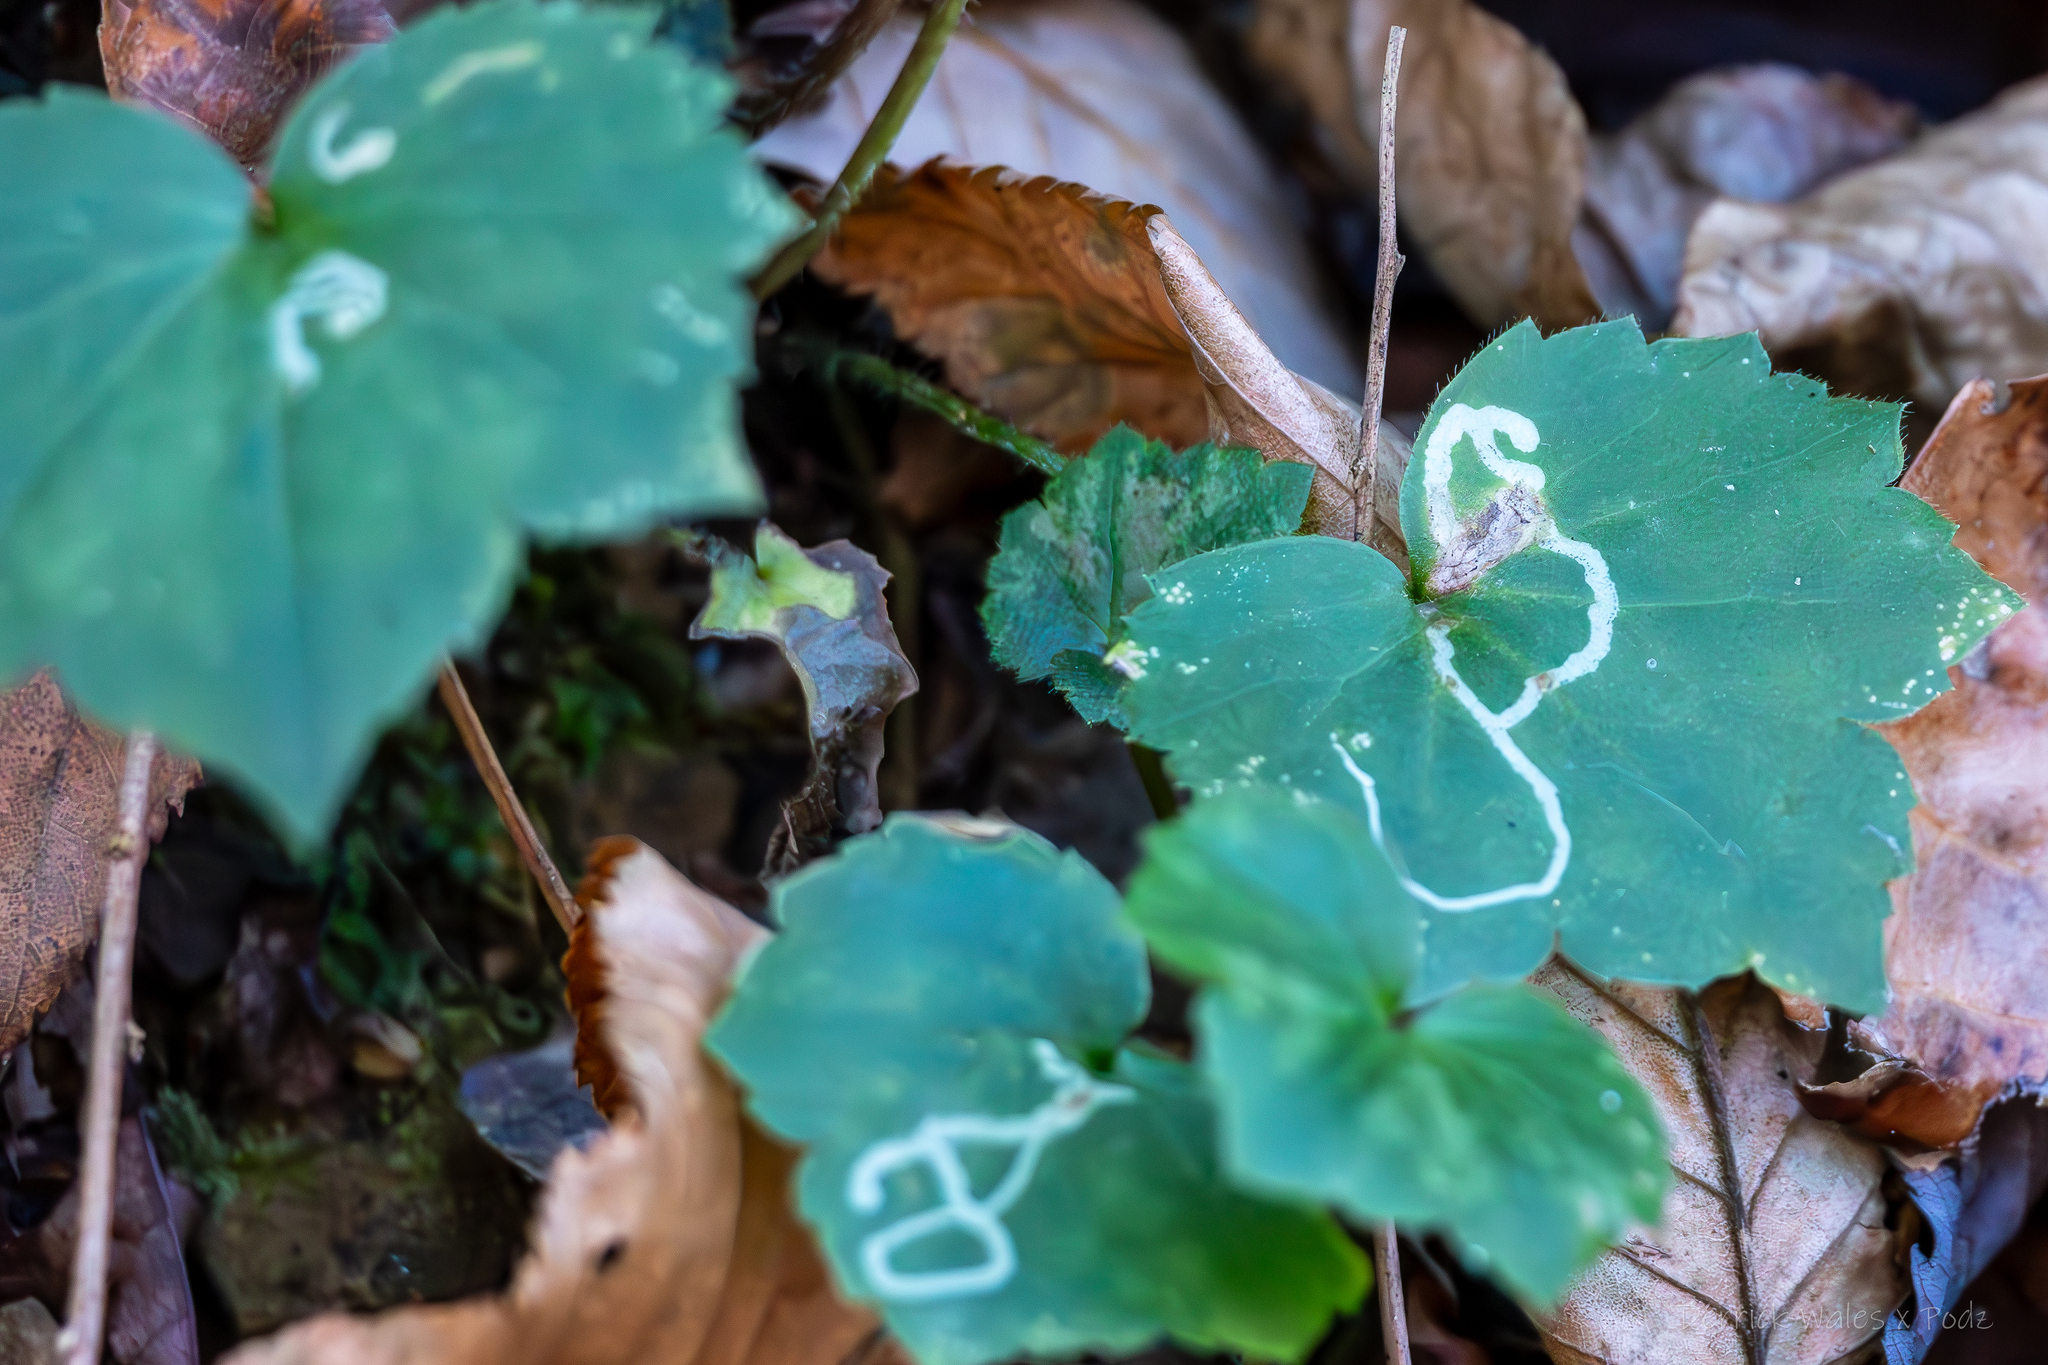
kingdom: Plantae
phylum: Tracheophyta
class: Magnoliopsida
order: Ranunculales
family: Ranunculaceae
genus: Ranunculus
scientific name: Ranunculus recurvatus
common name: Blisterwort
